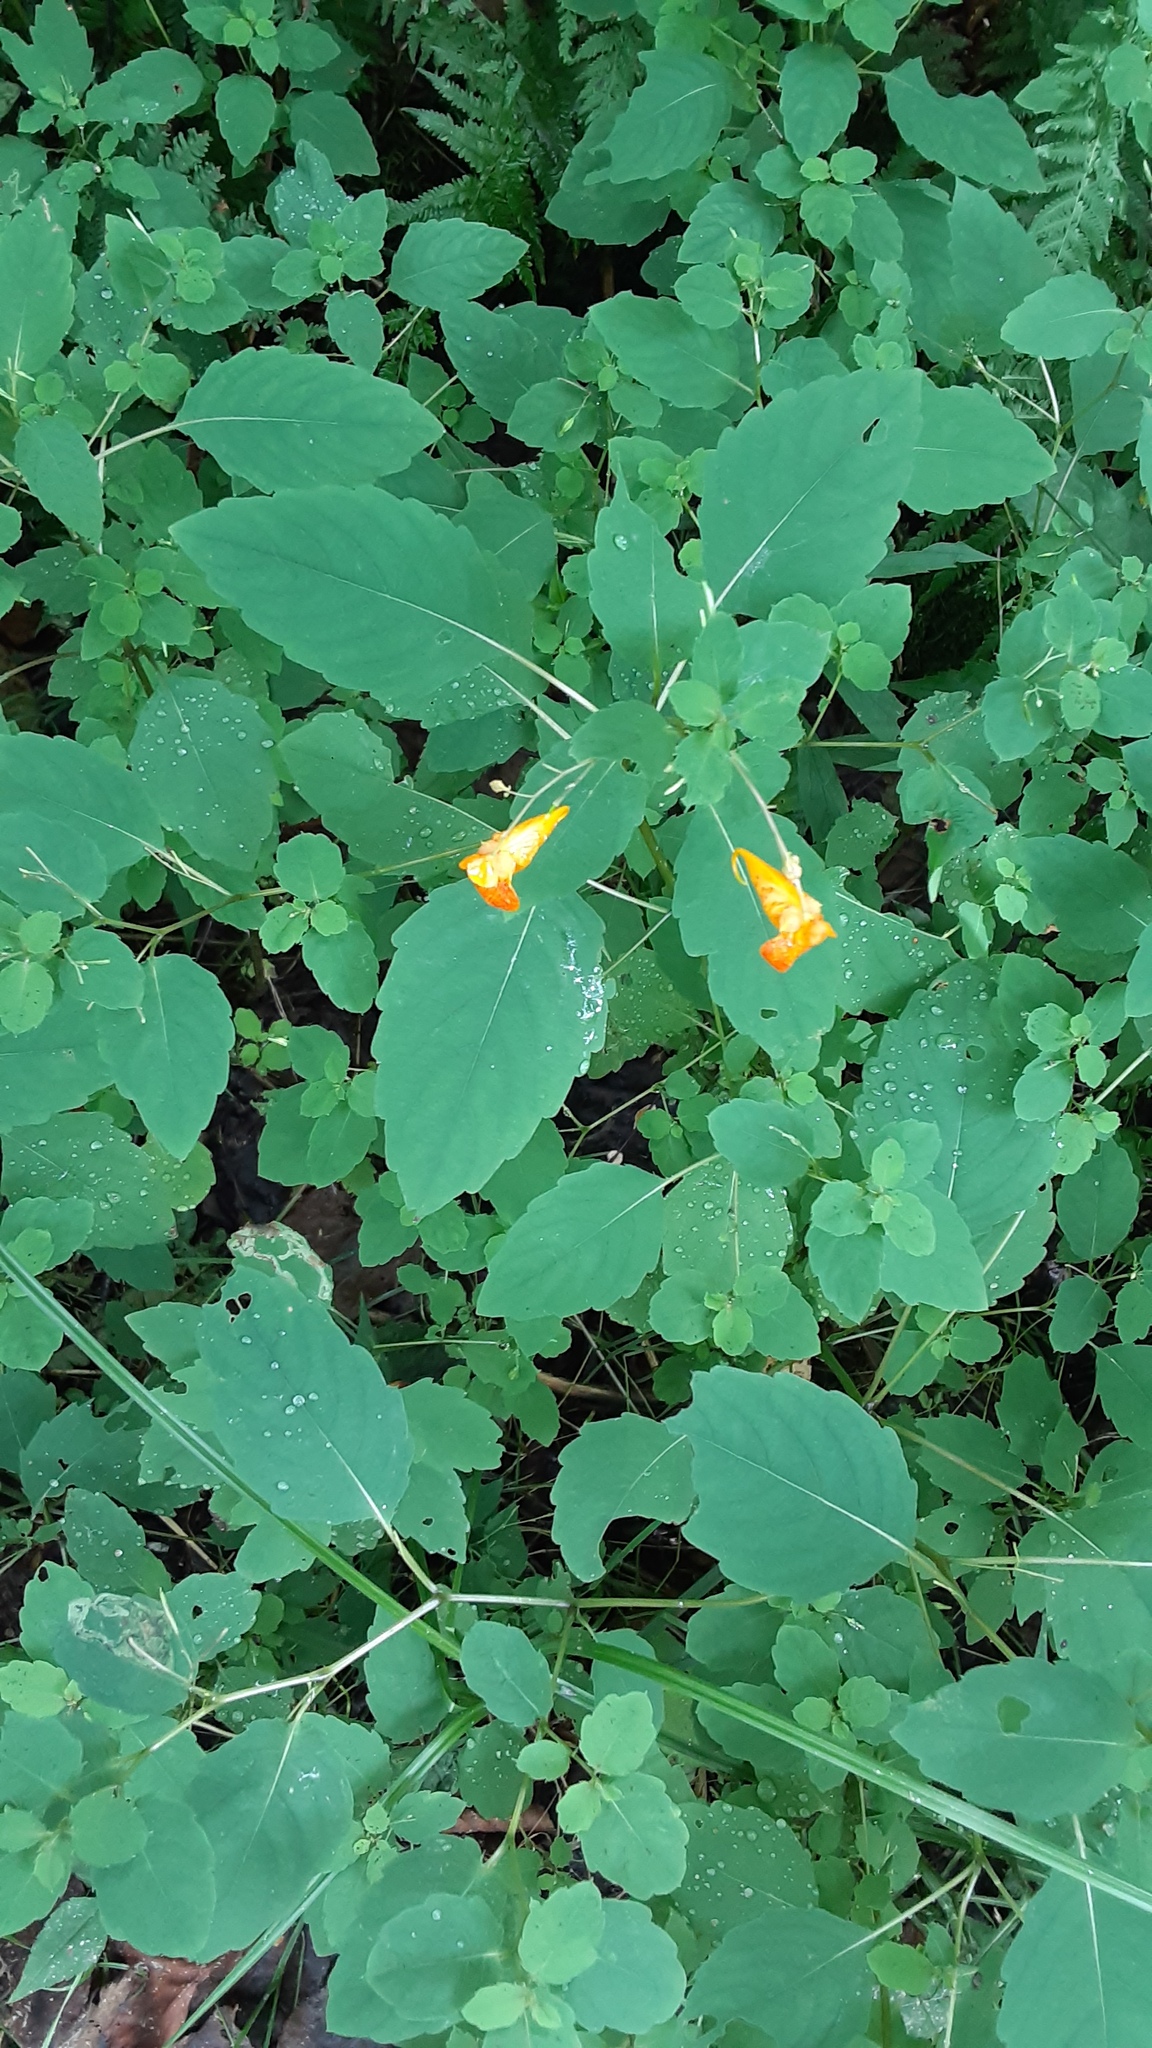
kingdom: Plantae
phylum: Tracheophyta
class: Magnoliopsida
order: Ericales
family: Balsaminaceae
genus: Impatiens
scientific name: Impatiens capensis
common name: Orange balsam
